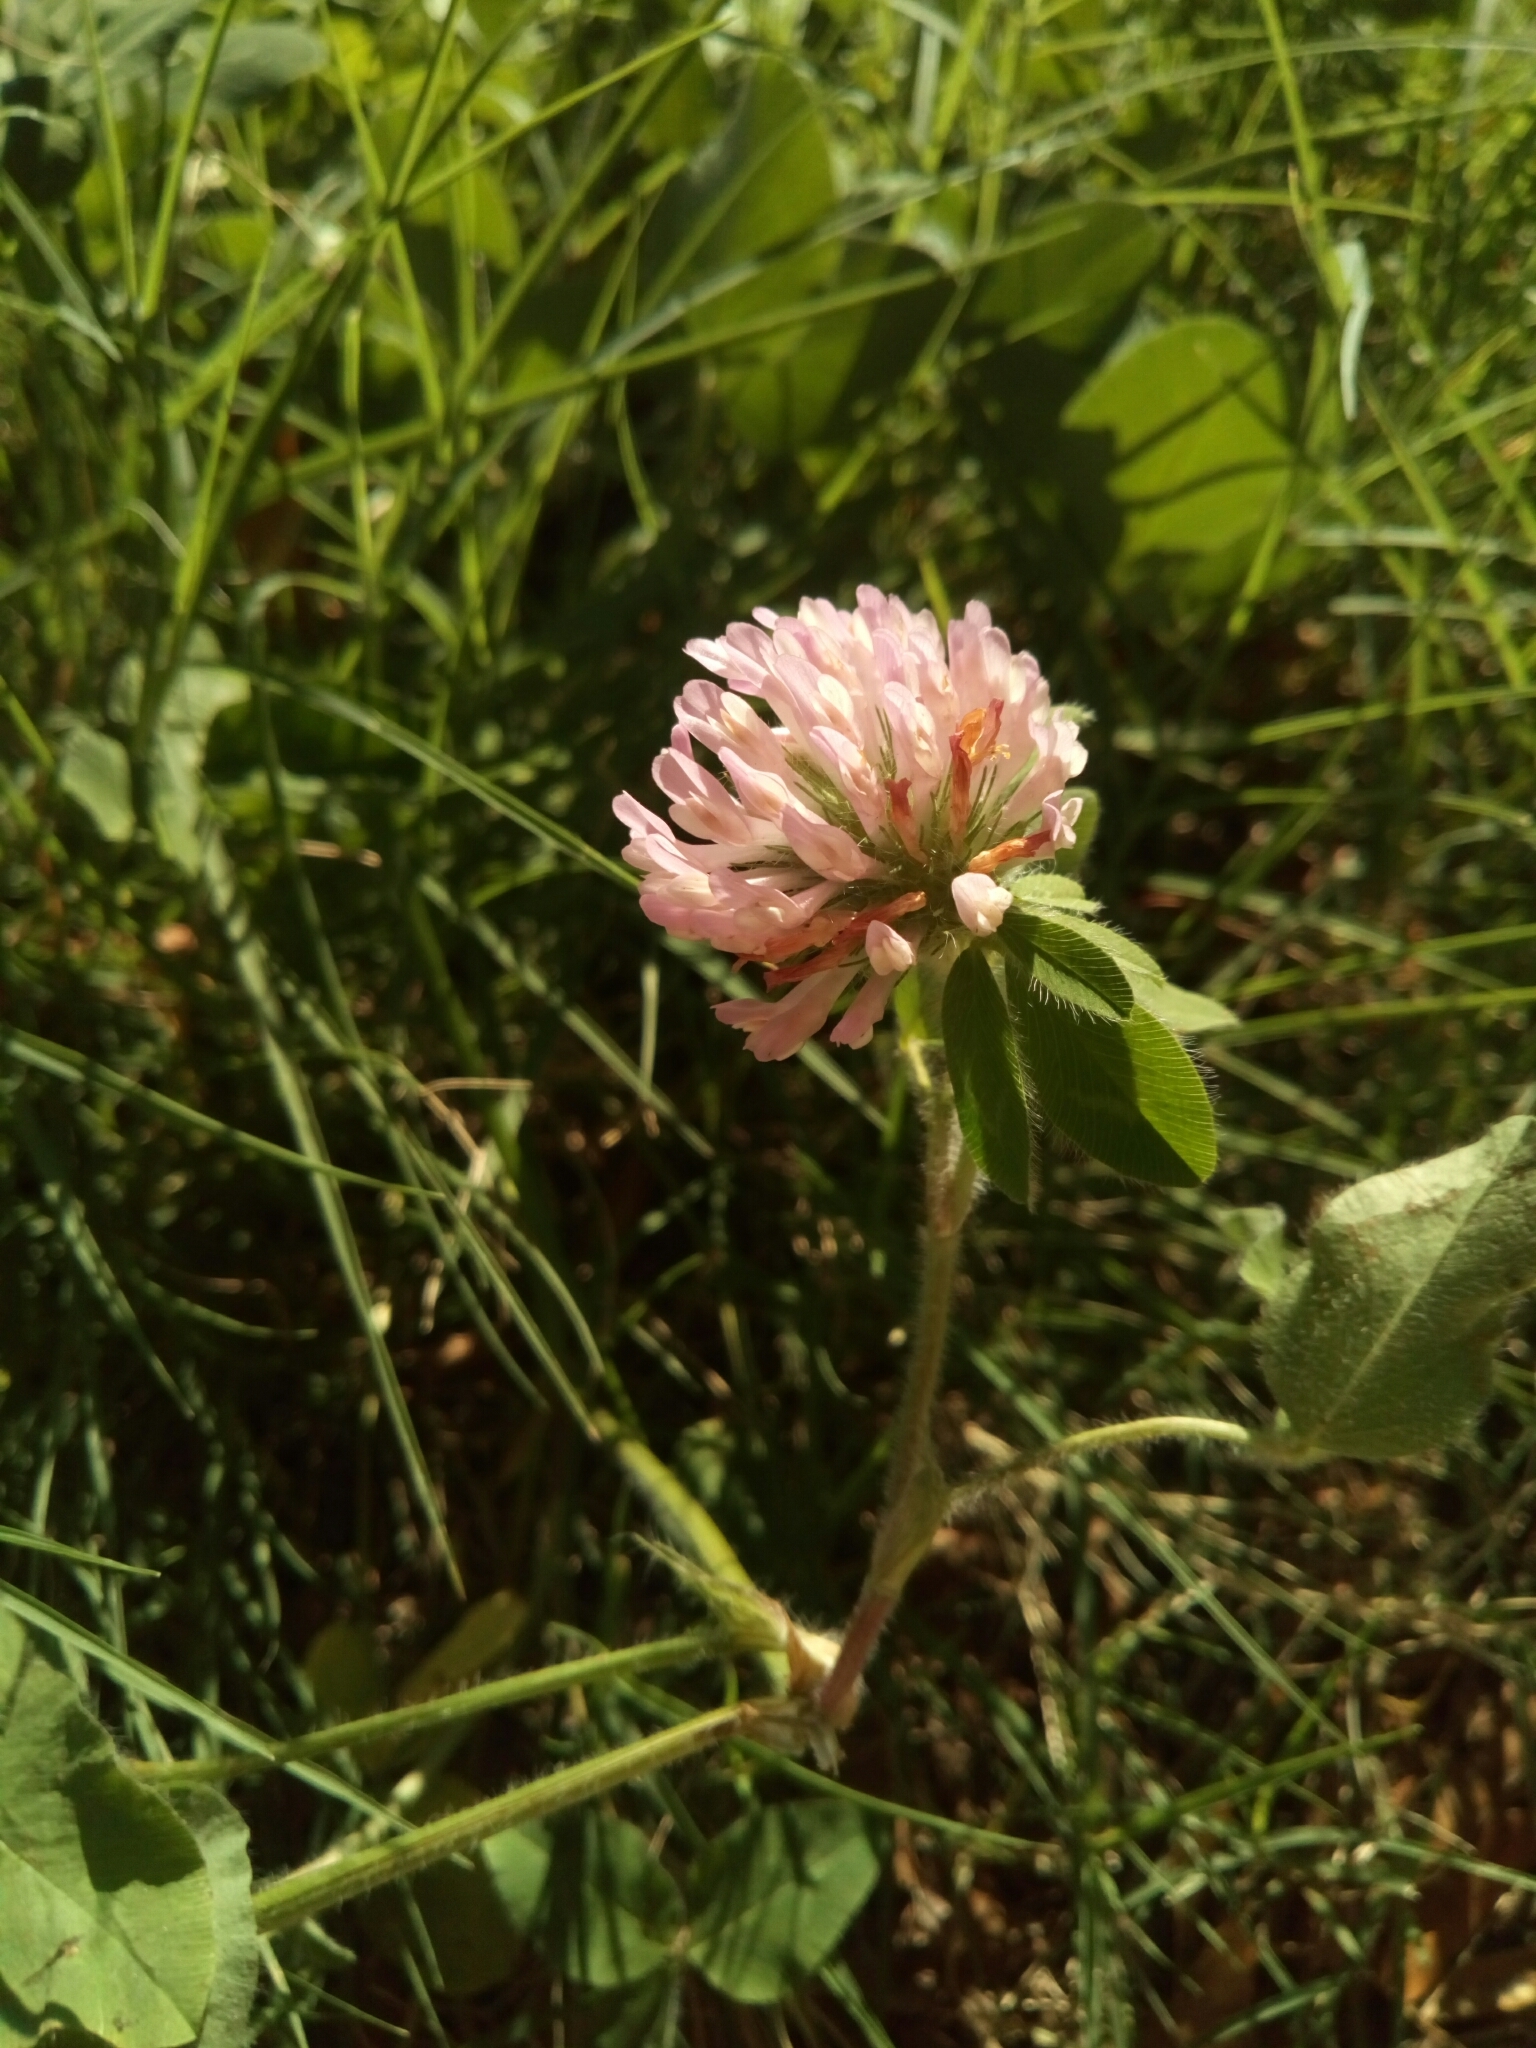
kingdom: Plantae
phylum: Tracheophyta
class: Magnoliopsida
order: Fabales
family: Fabaceae
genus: Trifolium
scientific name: Trifolium pratense
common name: Red clover
